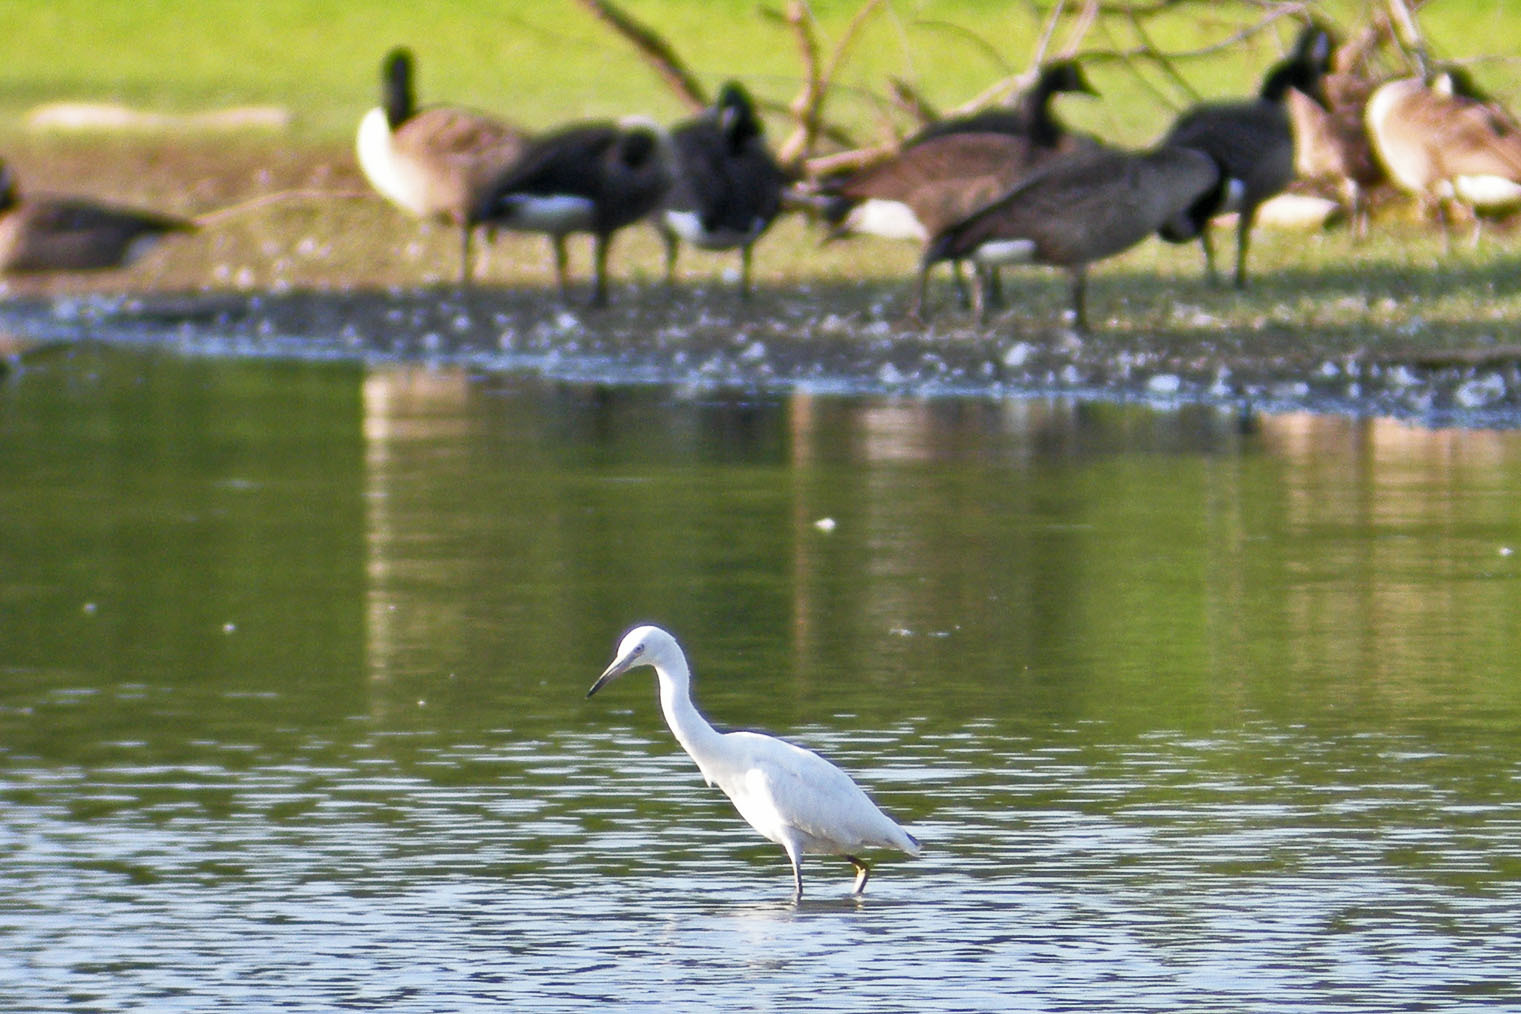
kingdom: Animalia
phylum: Chordata
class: Aves
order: Pelecaniformes
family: Ardeidae
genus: Egretta
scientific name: Egretta caerulea
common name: Little blue heron
